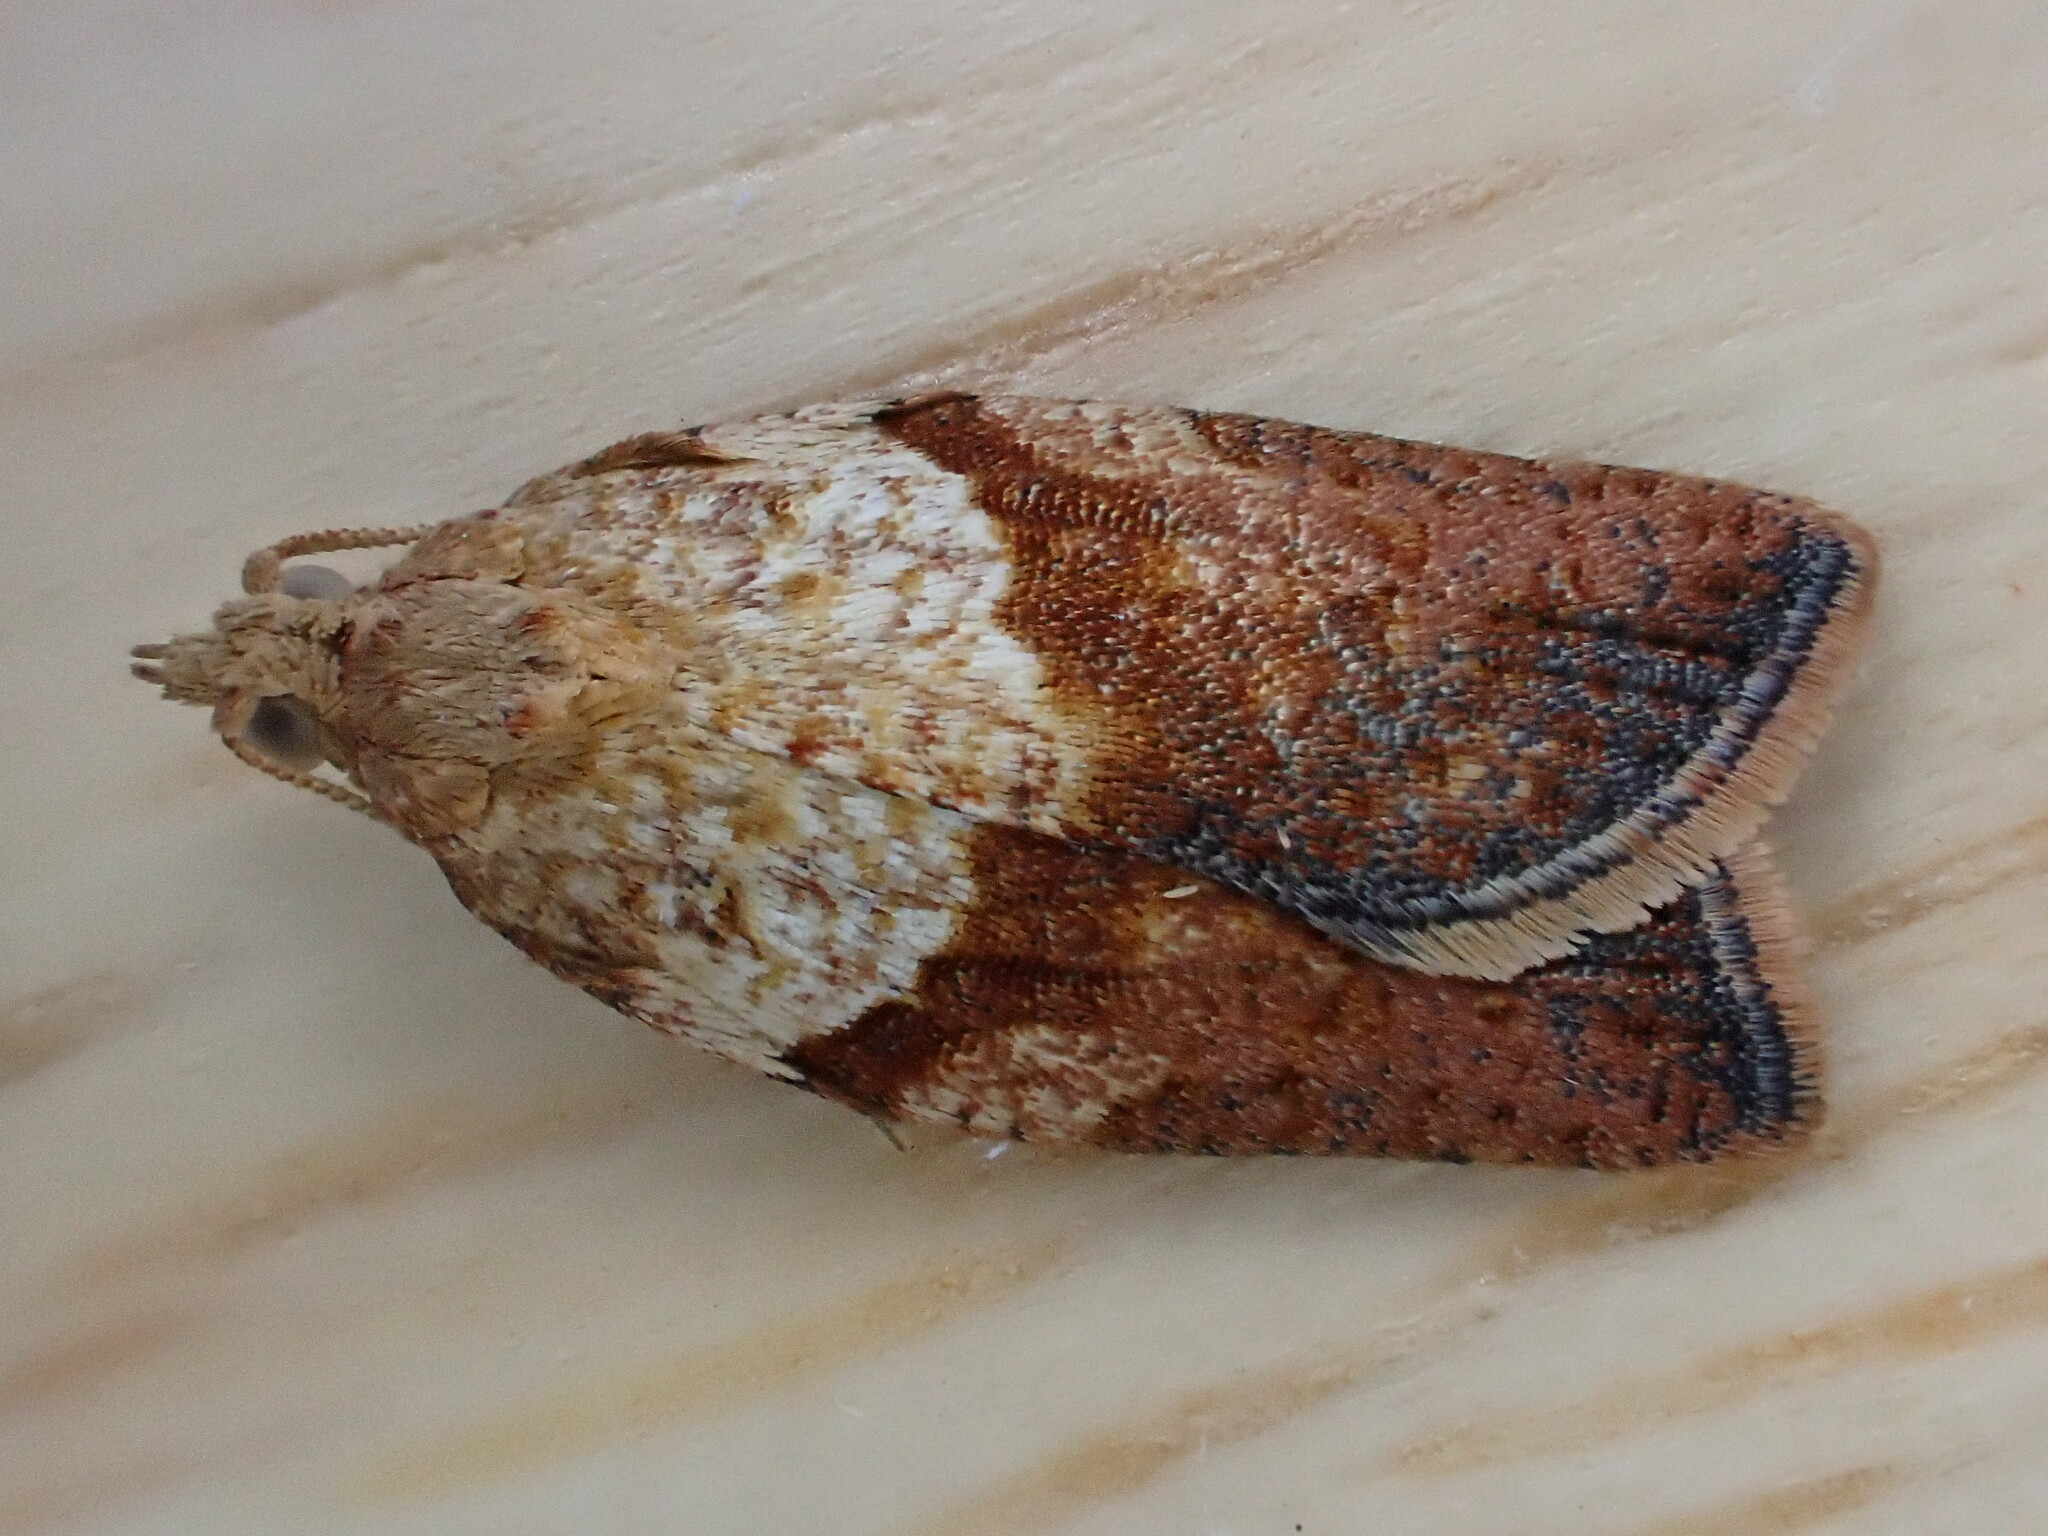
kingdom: Animalia
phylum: Arthropoda
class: Insecta
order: Lepidoptera
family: Tortricidae
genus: Epiphyas
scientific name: Epiphyas postvittana
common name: Light brown apple moth
